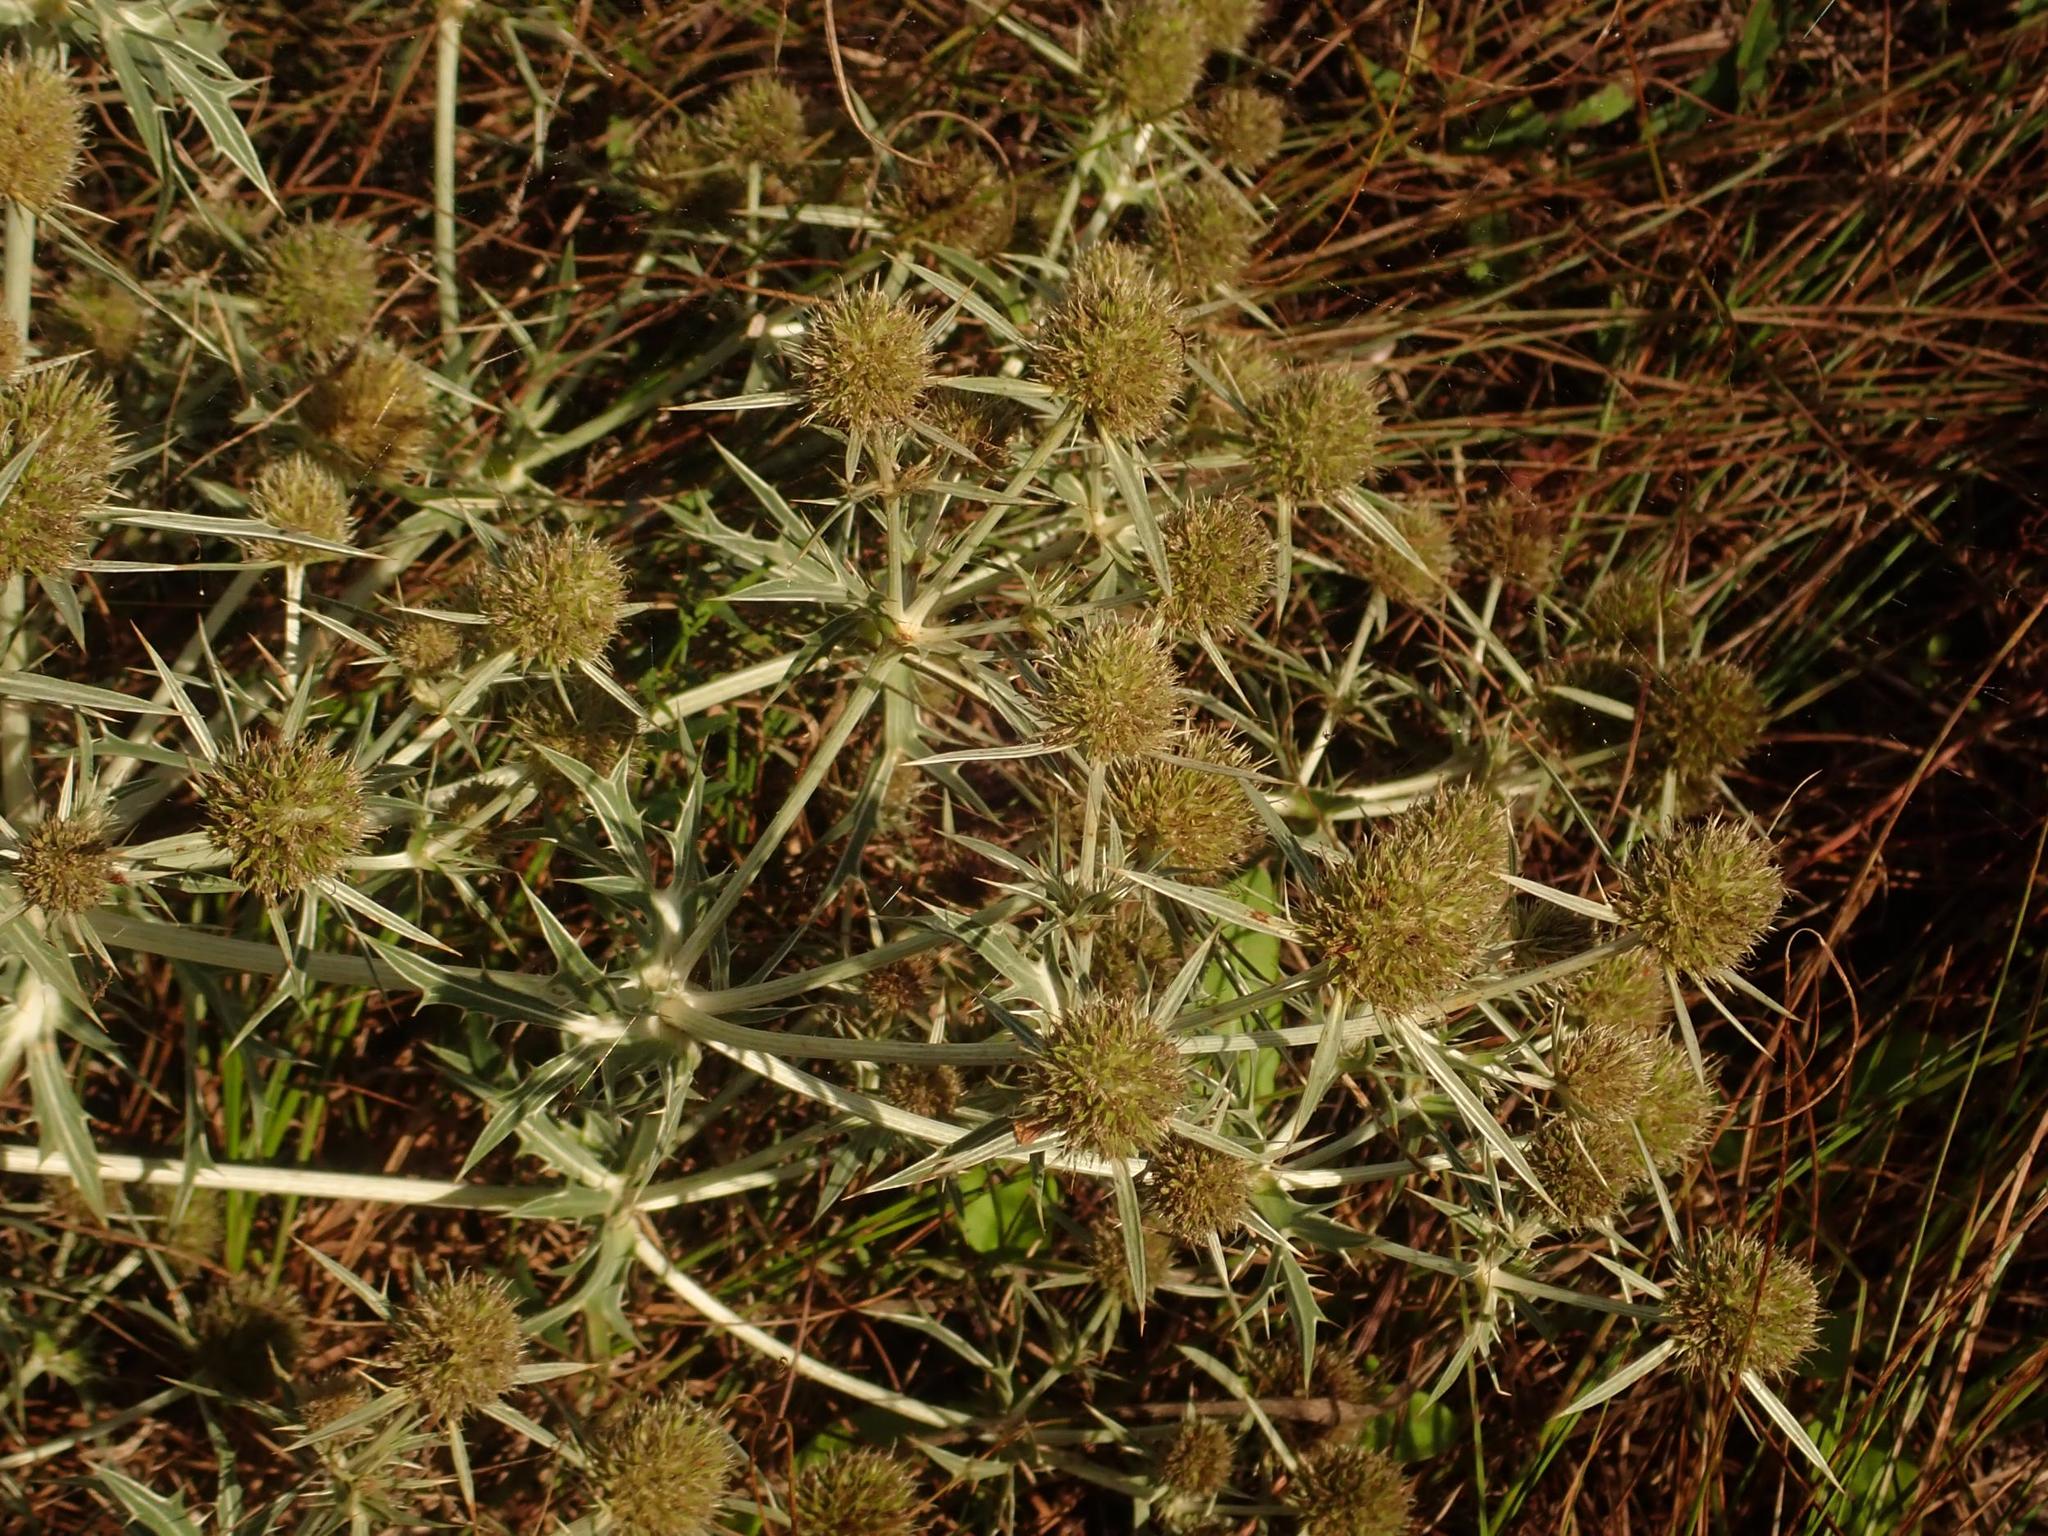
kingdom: Plantae
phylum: Tracheophyta
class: Magnoliopsida
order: Apiales
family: Apiaceae
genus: Eryngium
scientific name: Eryngium campestre
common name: Field eryngo
